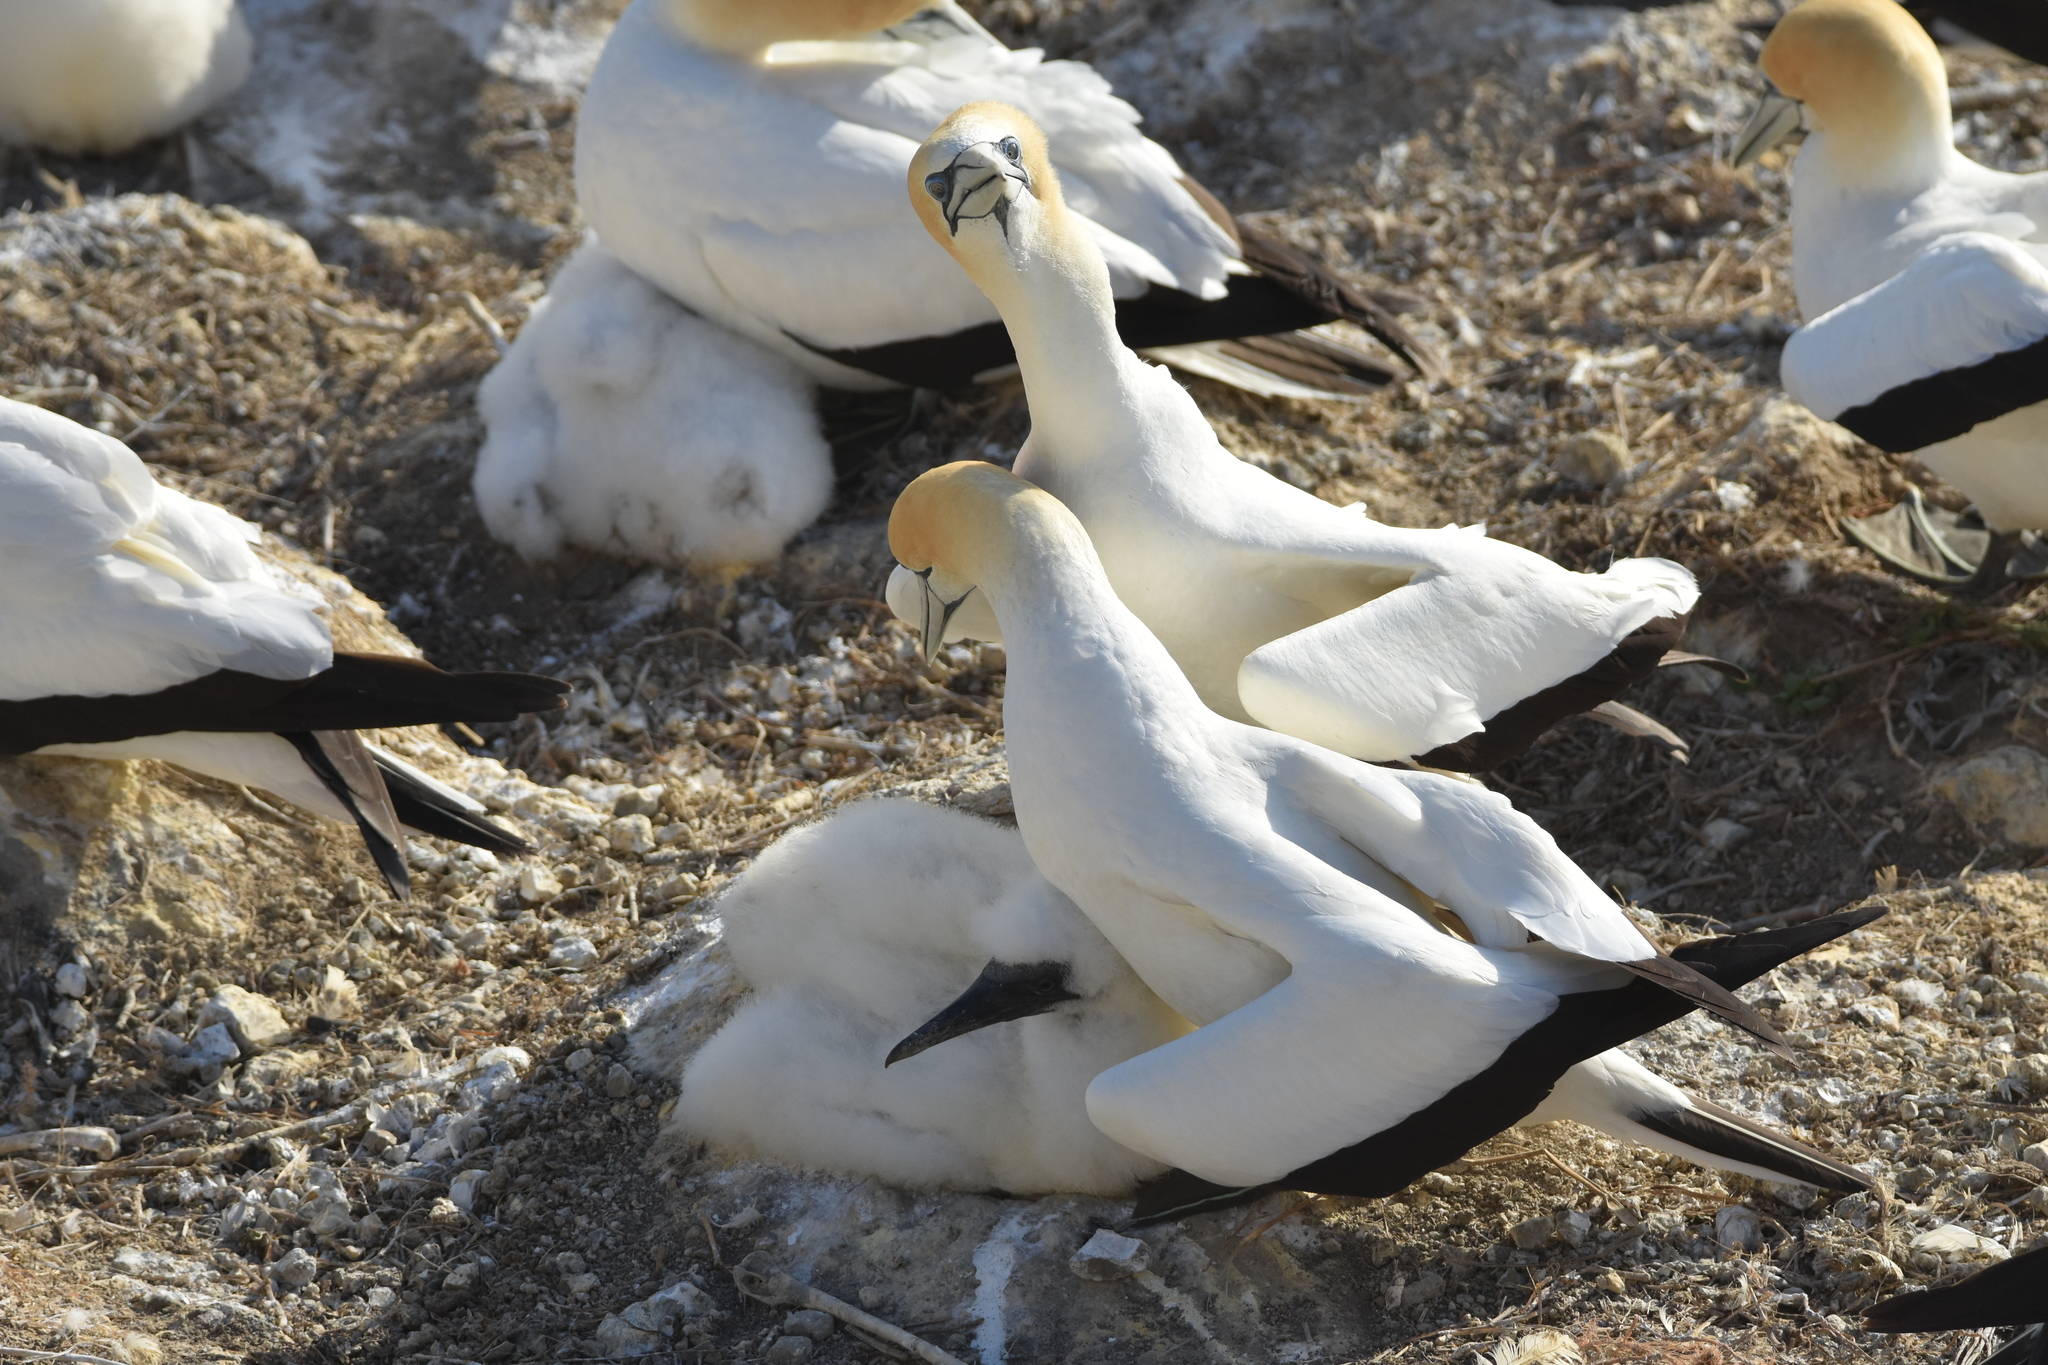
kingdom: Animalia
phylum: Chordata
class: Aves
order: Suliformes
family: Sulidae
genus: Morus
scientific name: Morus serrator
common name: Australasian gannet
